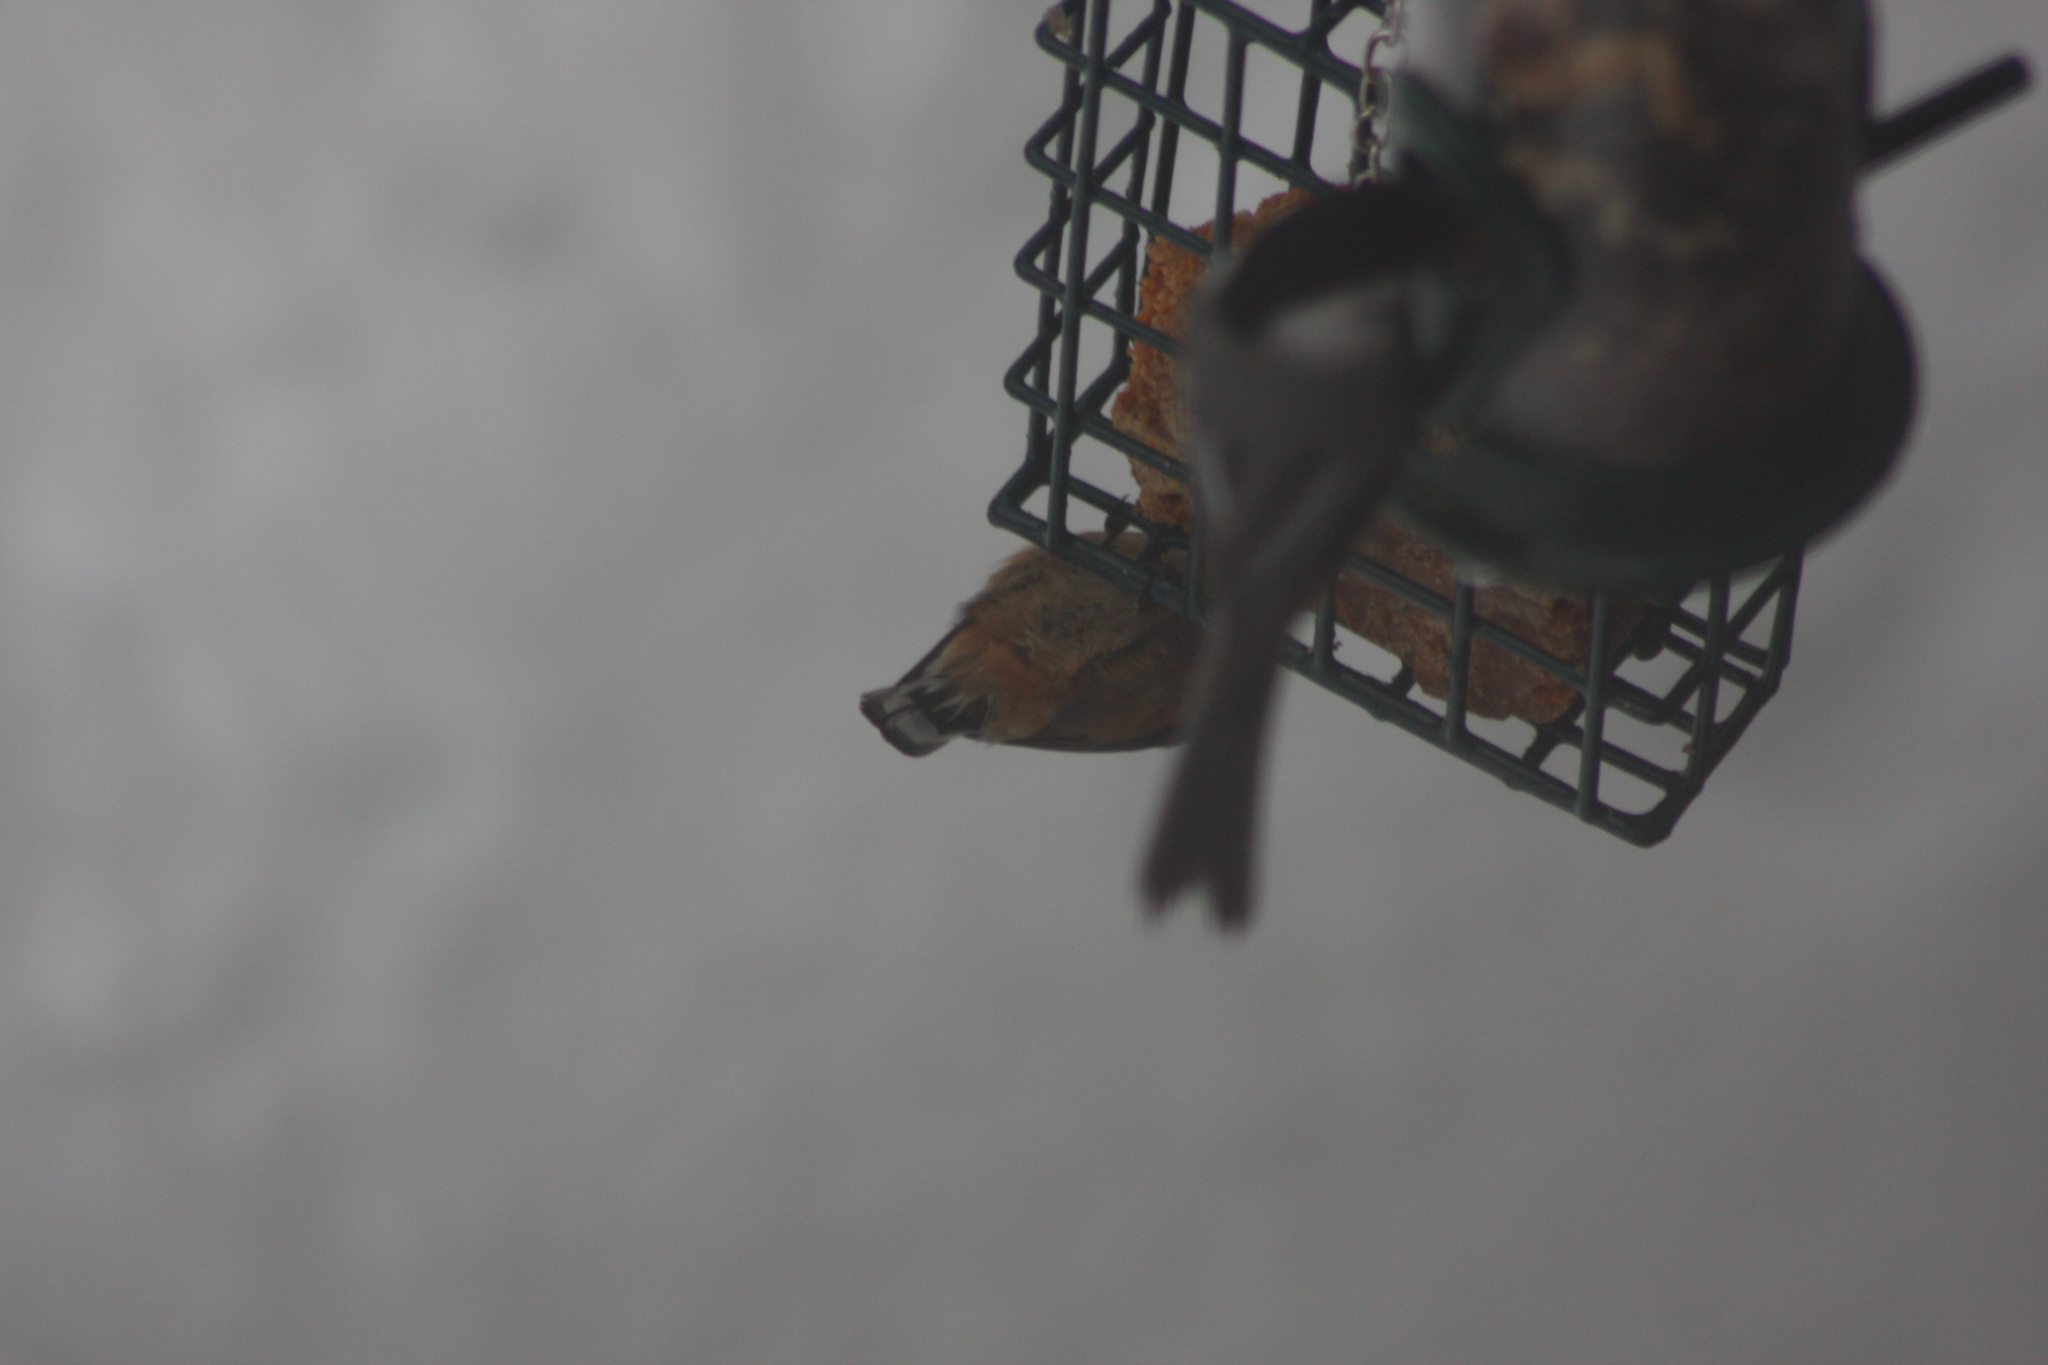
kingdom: Animalia
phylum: Chordata
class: Aves
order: Passeriformes
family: Sittidae
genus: Sitta
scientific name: Sitta canadensis
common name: Red-breasted nuthatch
